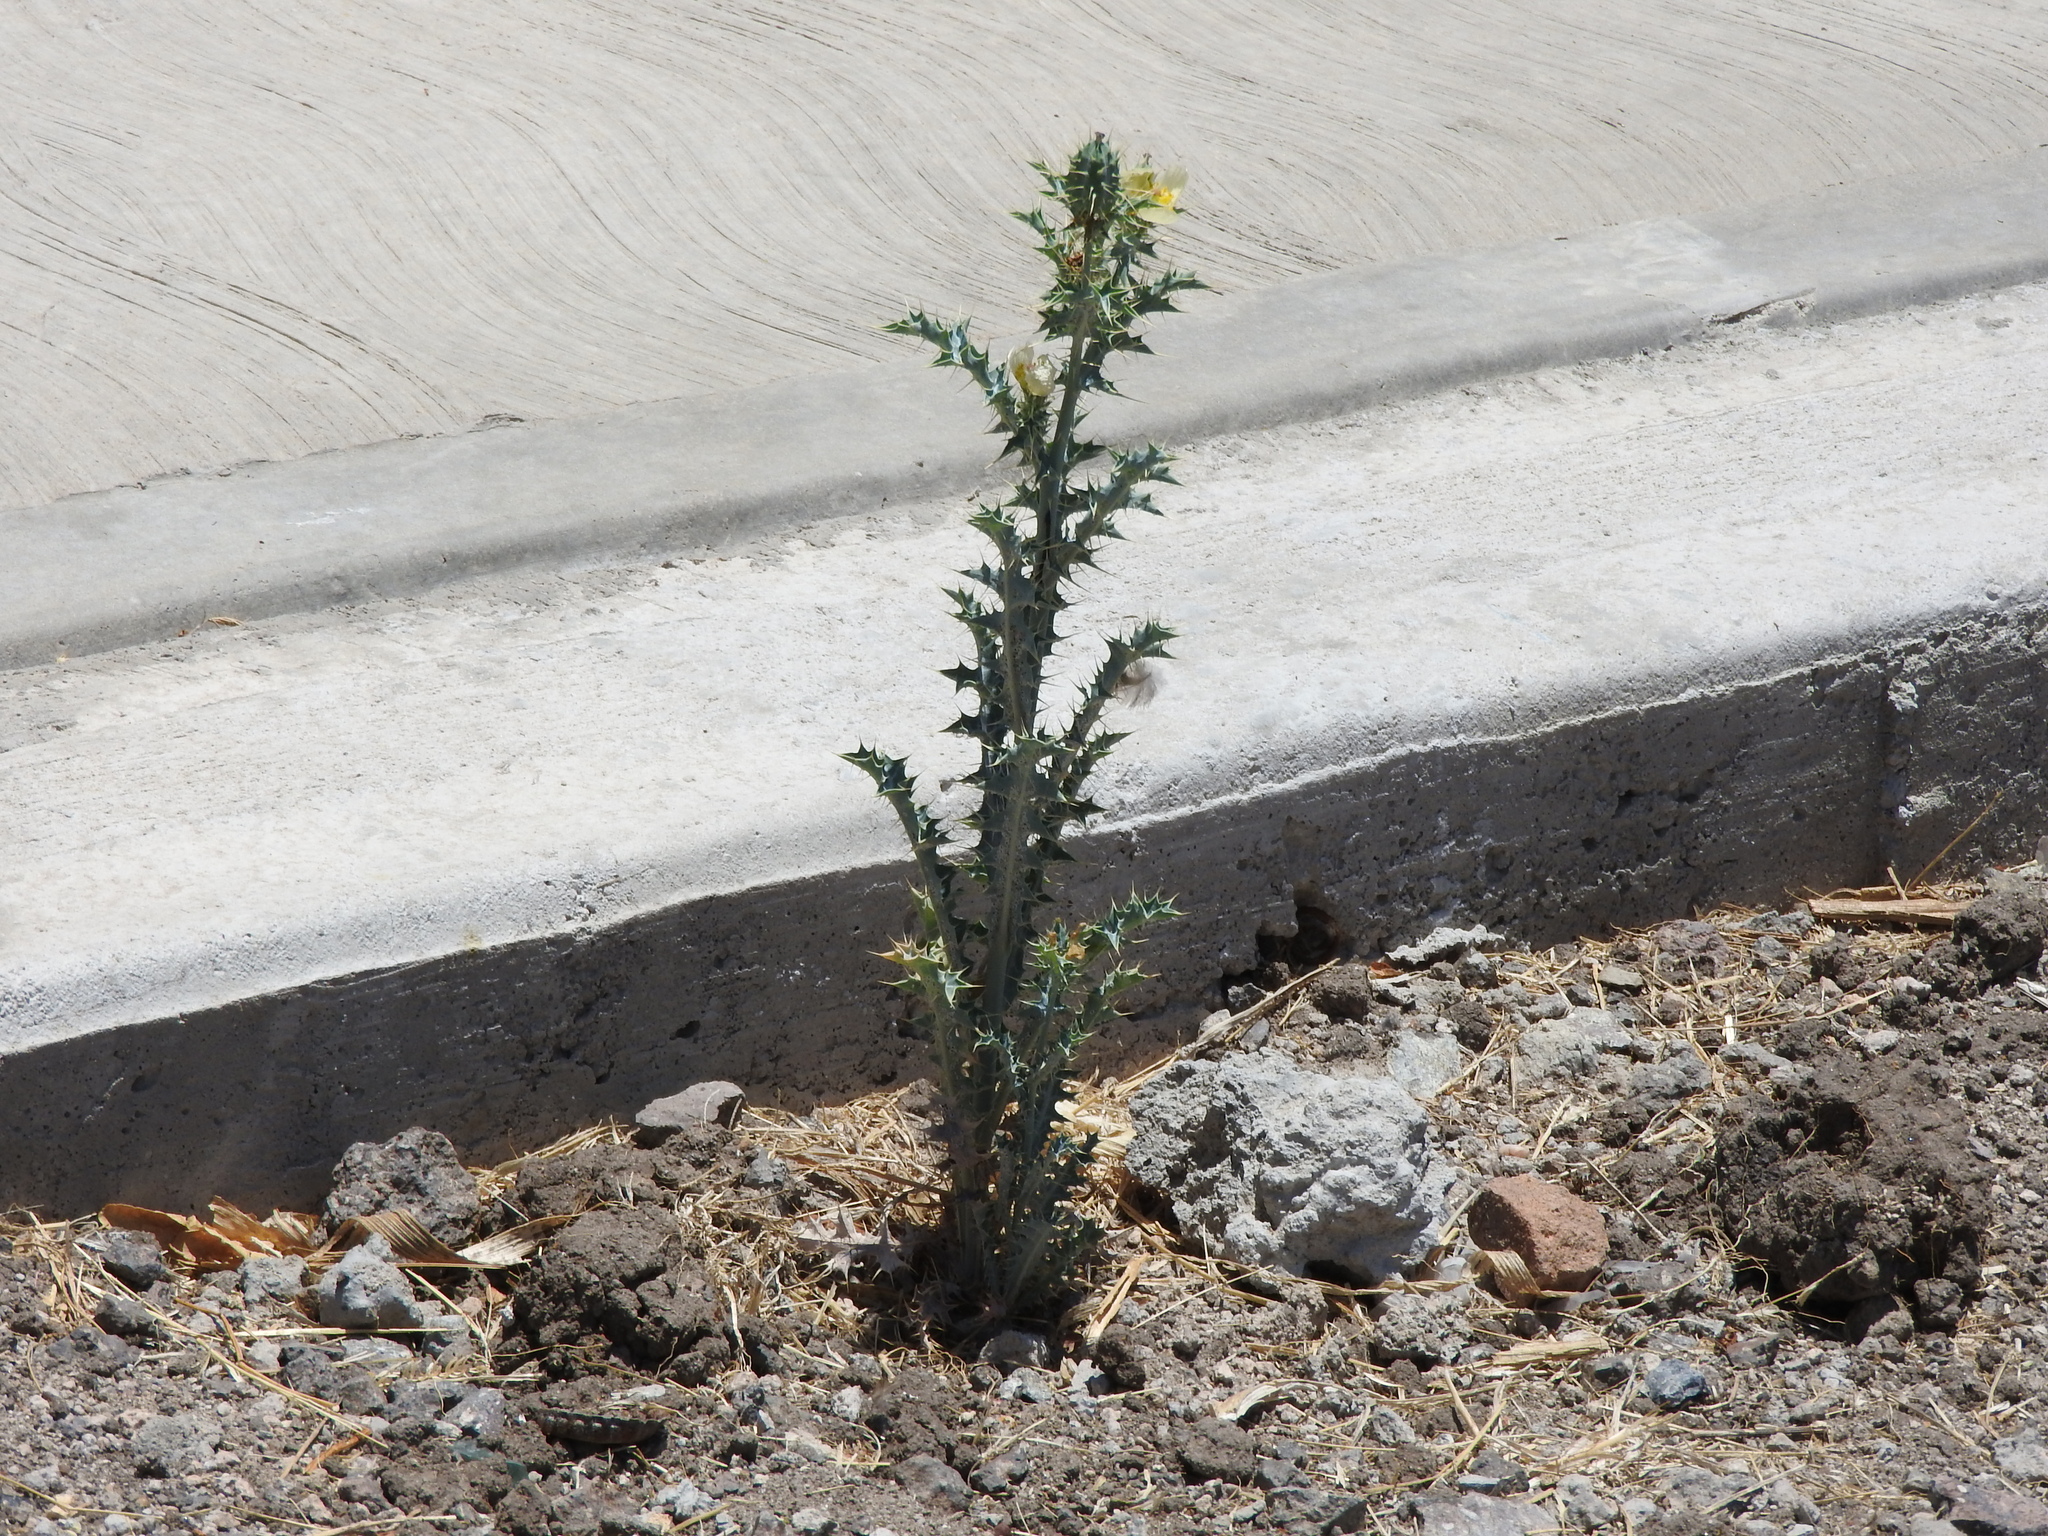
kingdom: Plantae
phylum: Tracheophyta
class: Magnoliopsida
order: Ranunculales
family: Papaveraceae
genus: Argemone
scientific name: Argemone ochroleuca
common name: White-flower mexican-poppy
